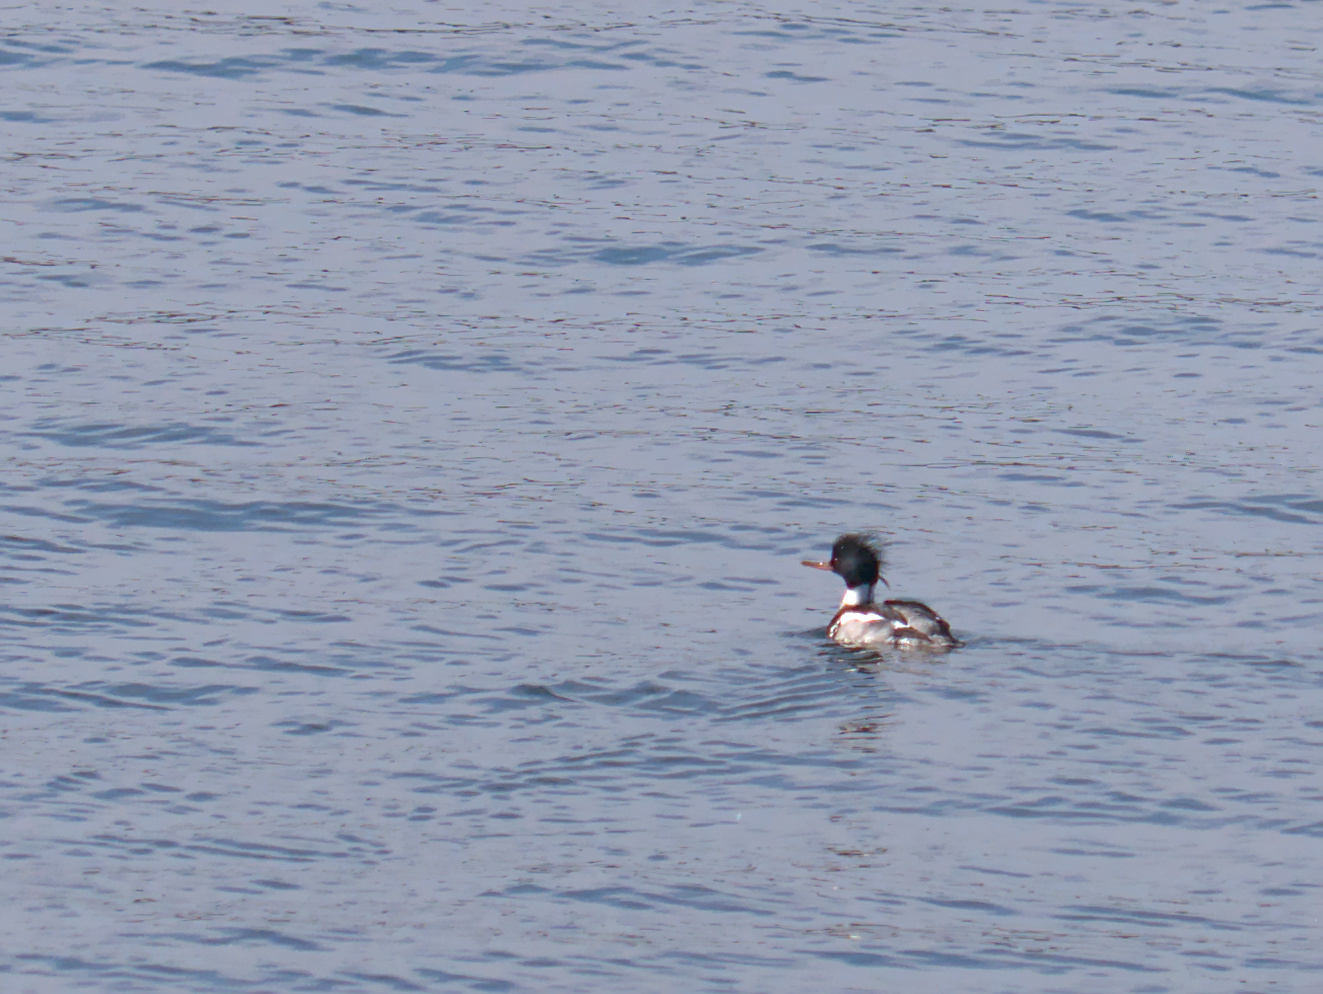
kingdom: Animalia
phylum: Chordata
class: Aves
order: Anseriformes
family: Anatidae
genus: Mergus
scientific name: Mergus serrator
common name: Red-breasted merganser
